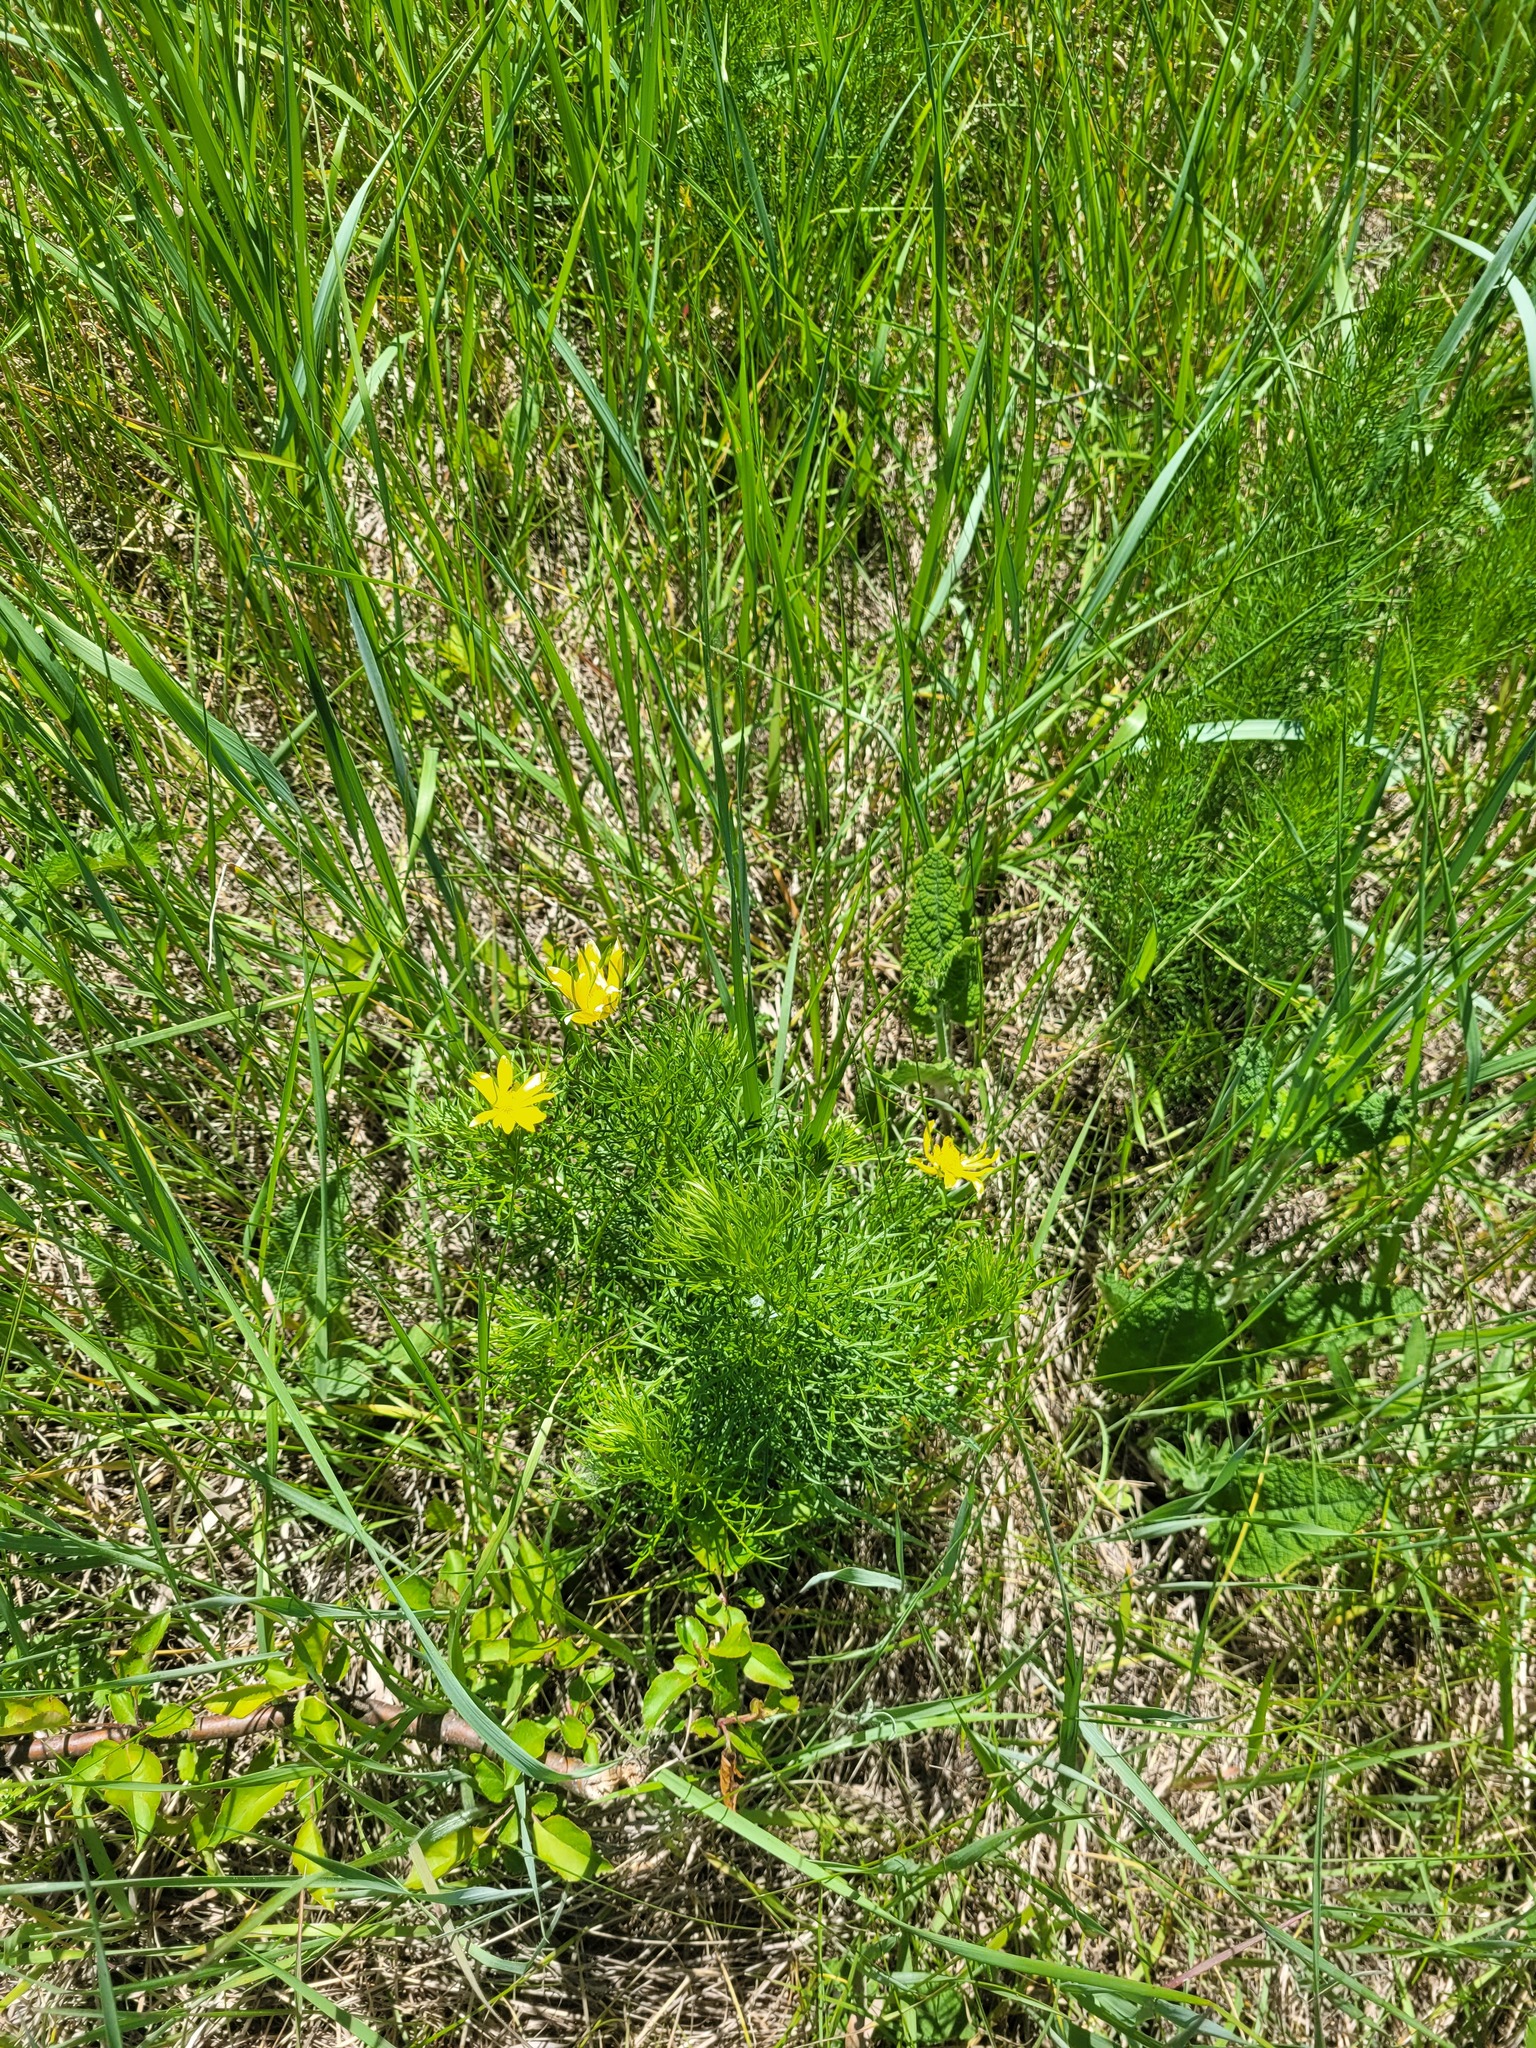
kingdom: Plantae
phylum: Tracheophyta
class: Magnoliopsida
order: Ranunculales
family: Ranunculaceae
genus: Adonis
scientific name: Adonis vernalis
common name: Yellow pheasants-eye
